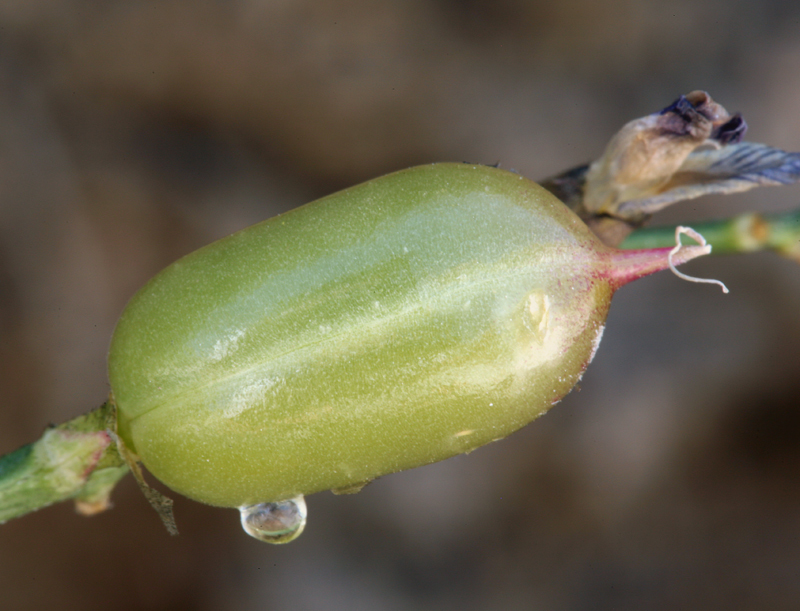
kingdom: Plantae
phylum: Tracheophyta
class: Magnoliopsida
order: Fabales
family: Fabaceae
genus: Astragalus
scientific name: Astragalus serenoi
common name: Naked milk-vetch
